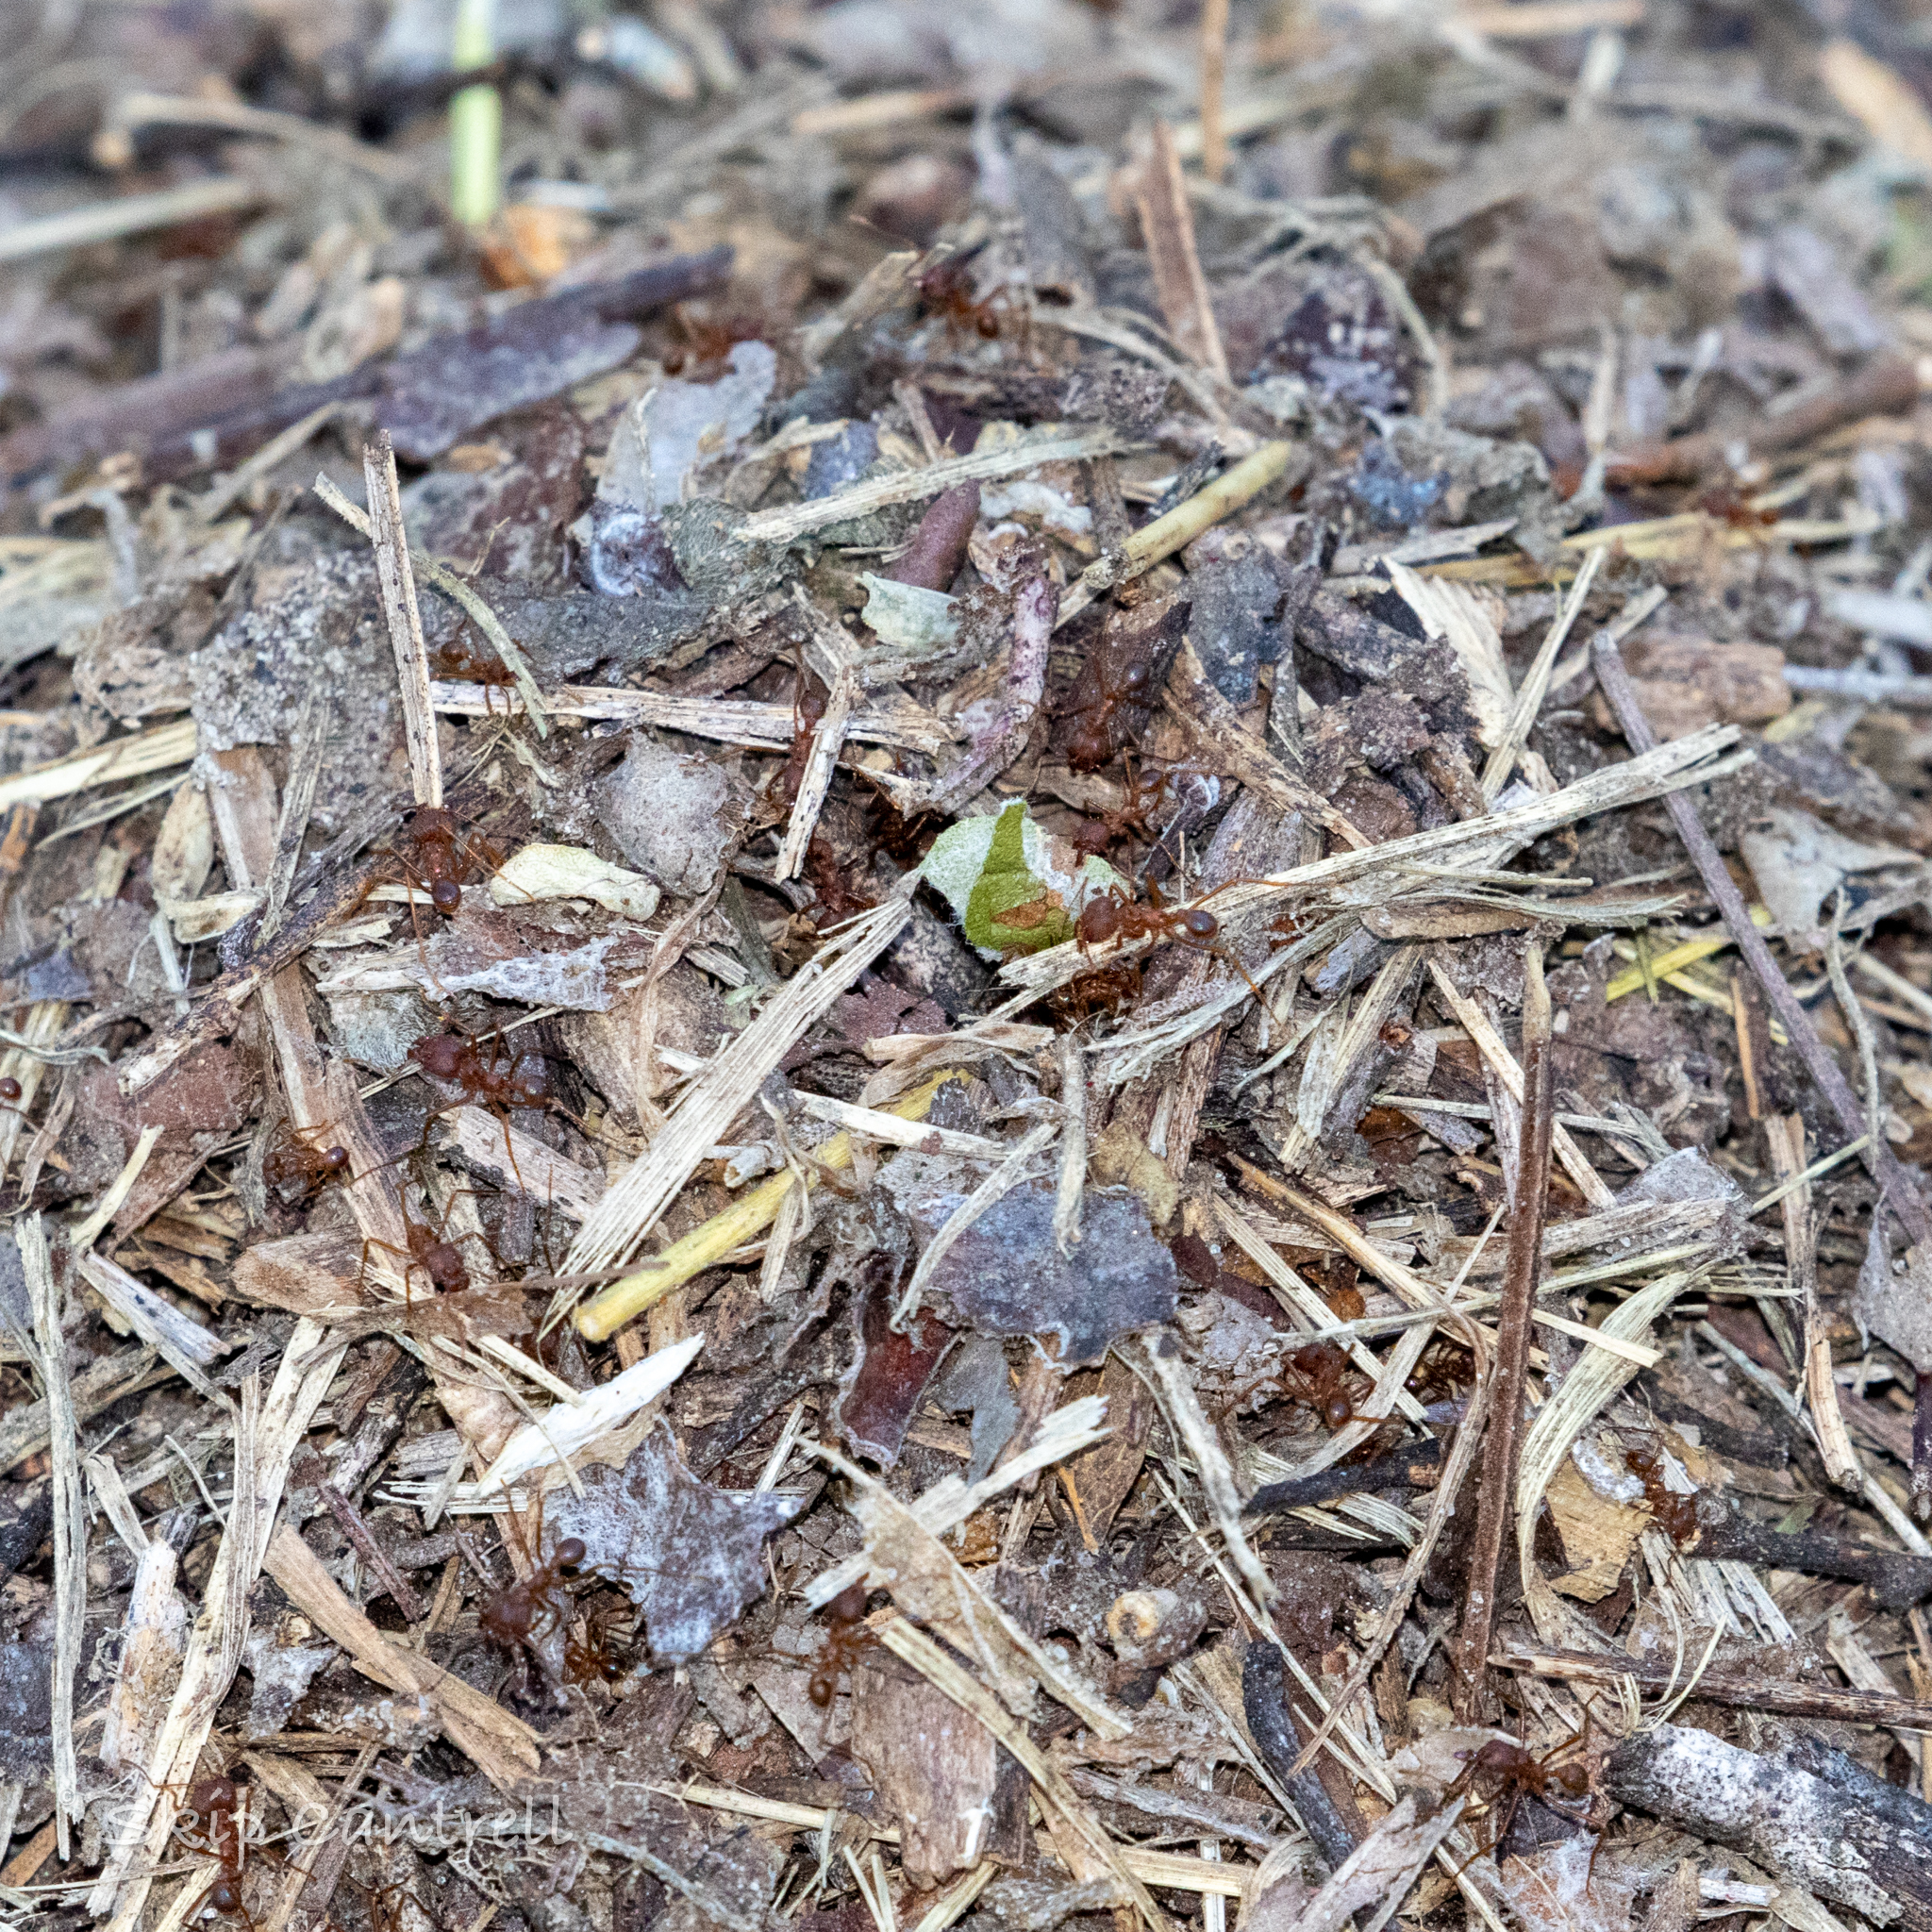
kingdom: Animalia
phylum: Arthropoda
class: Insecta
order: Hymenoptera
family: Formicidae
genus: Atta
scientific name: Atta texana
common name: Texas leafcutting ant
